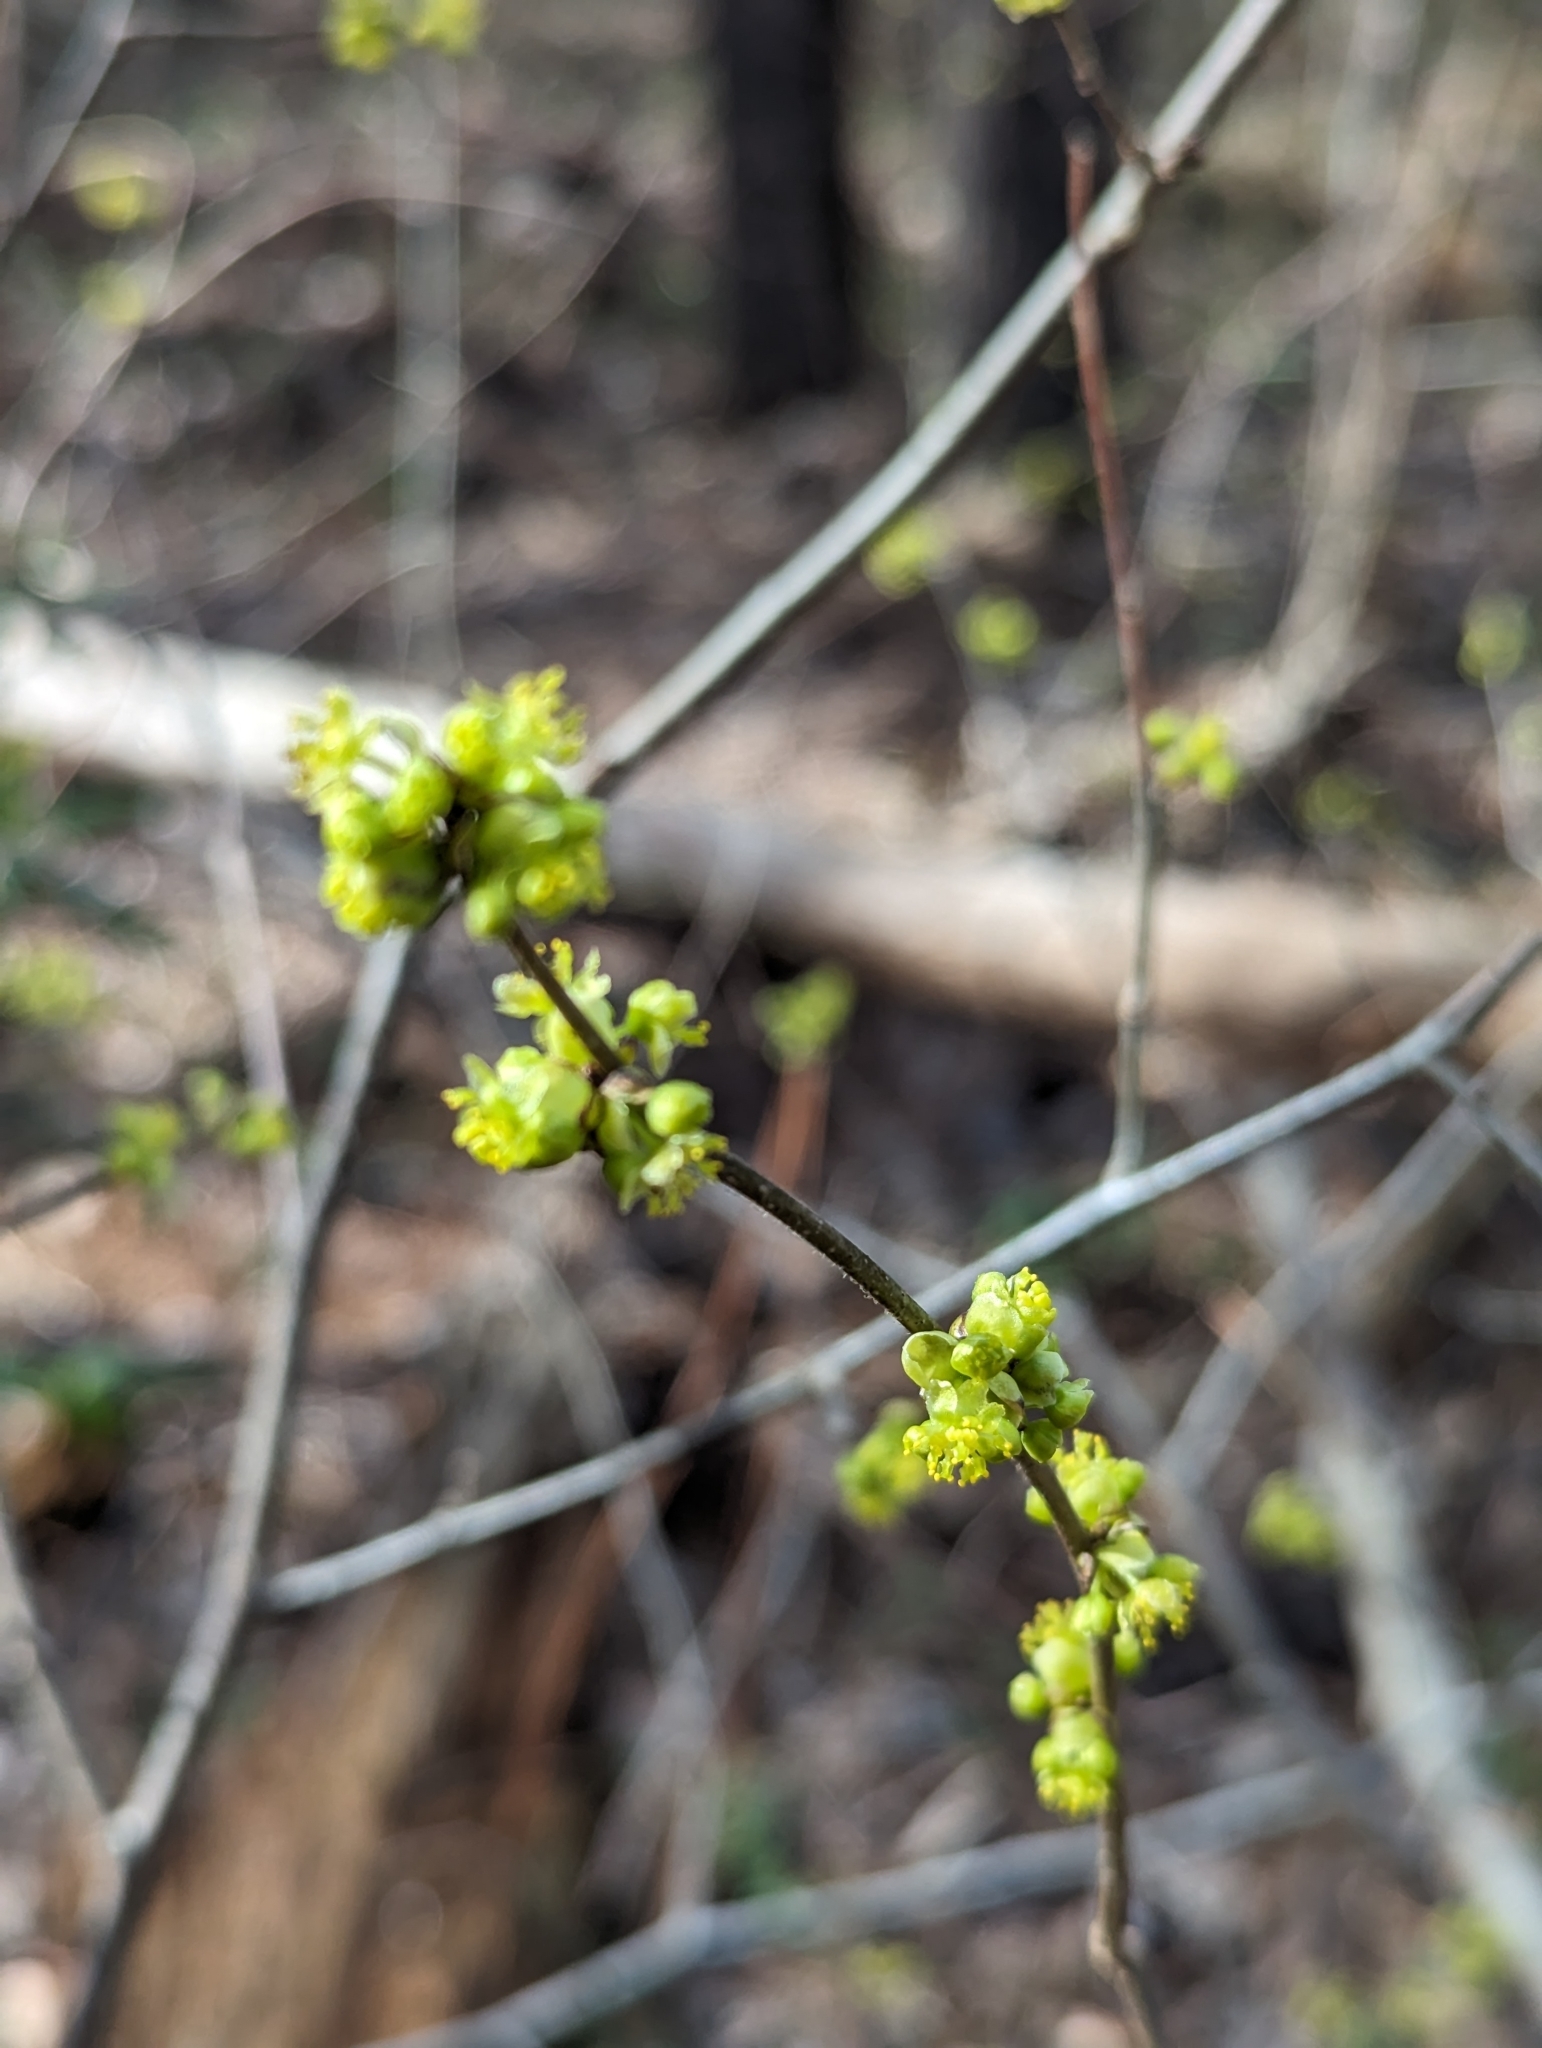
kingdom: Plantae
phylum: Tracheophyta
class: Magnoliopsida
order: Laurales
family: Lauraceae
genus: Lindera
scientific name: Lindera benzoin
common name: Spicebush
